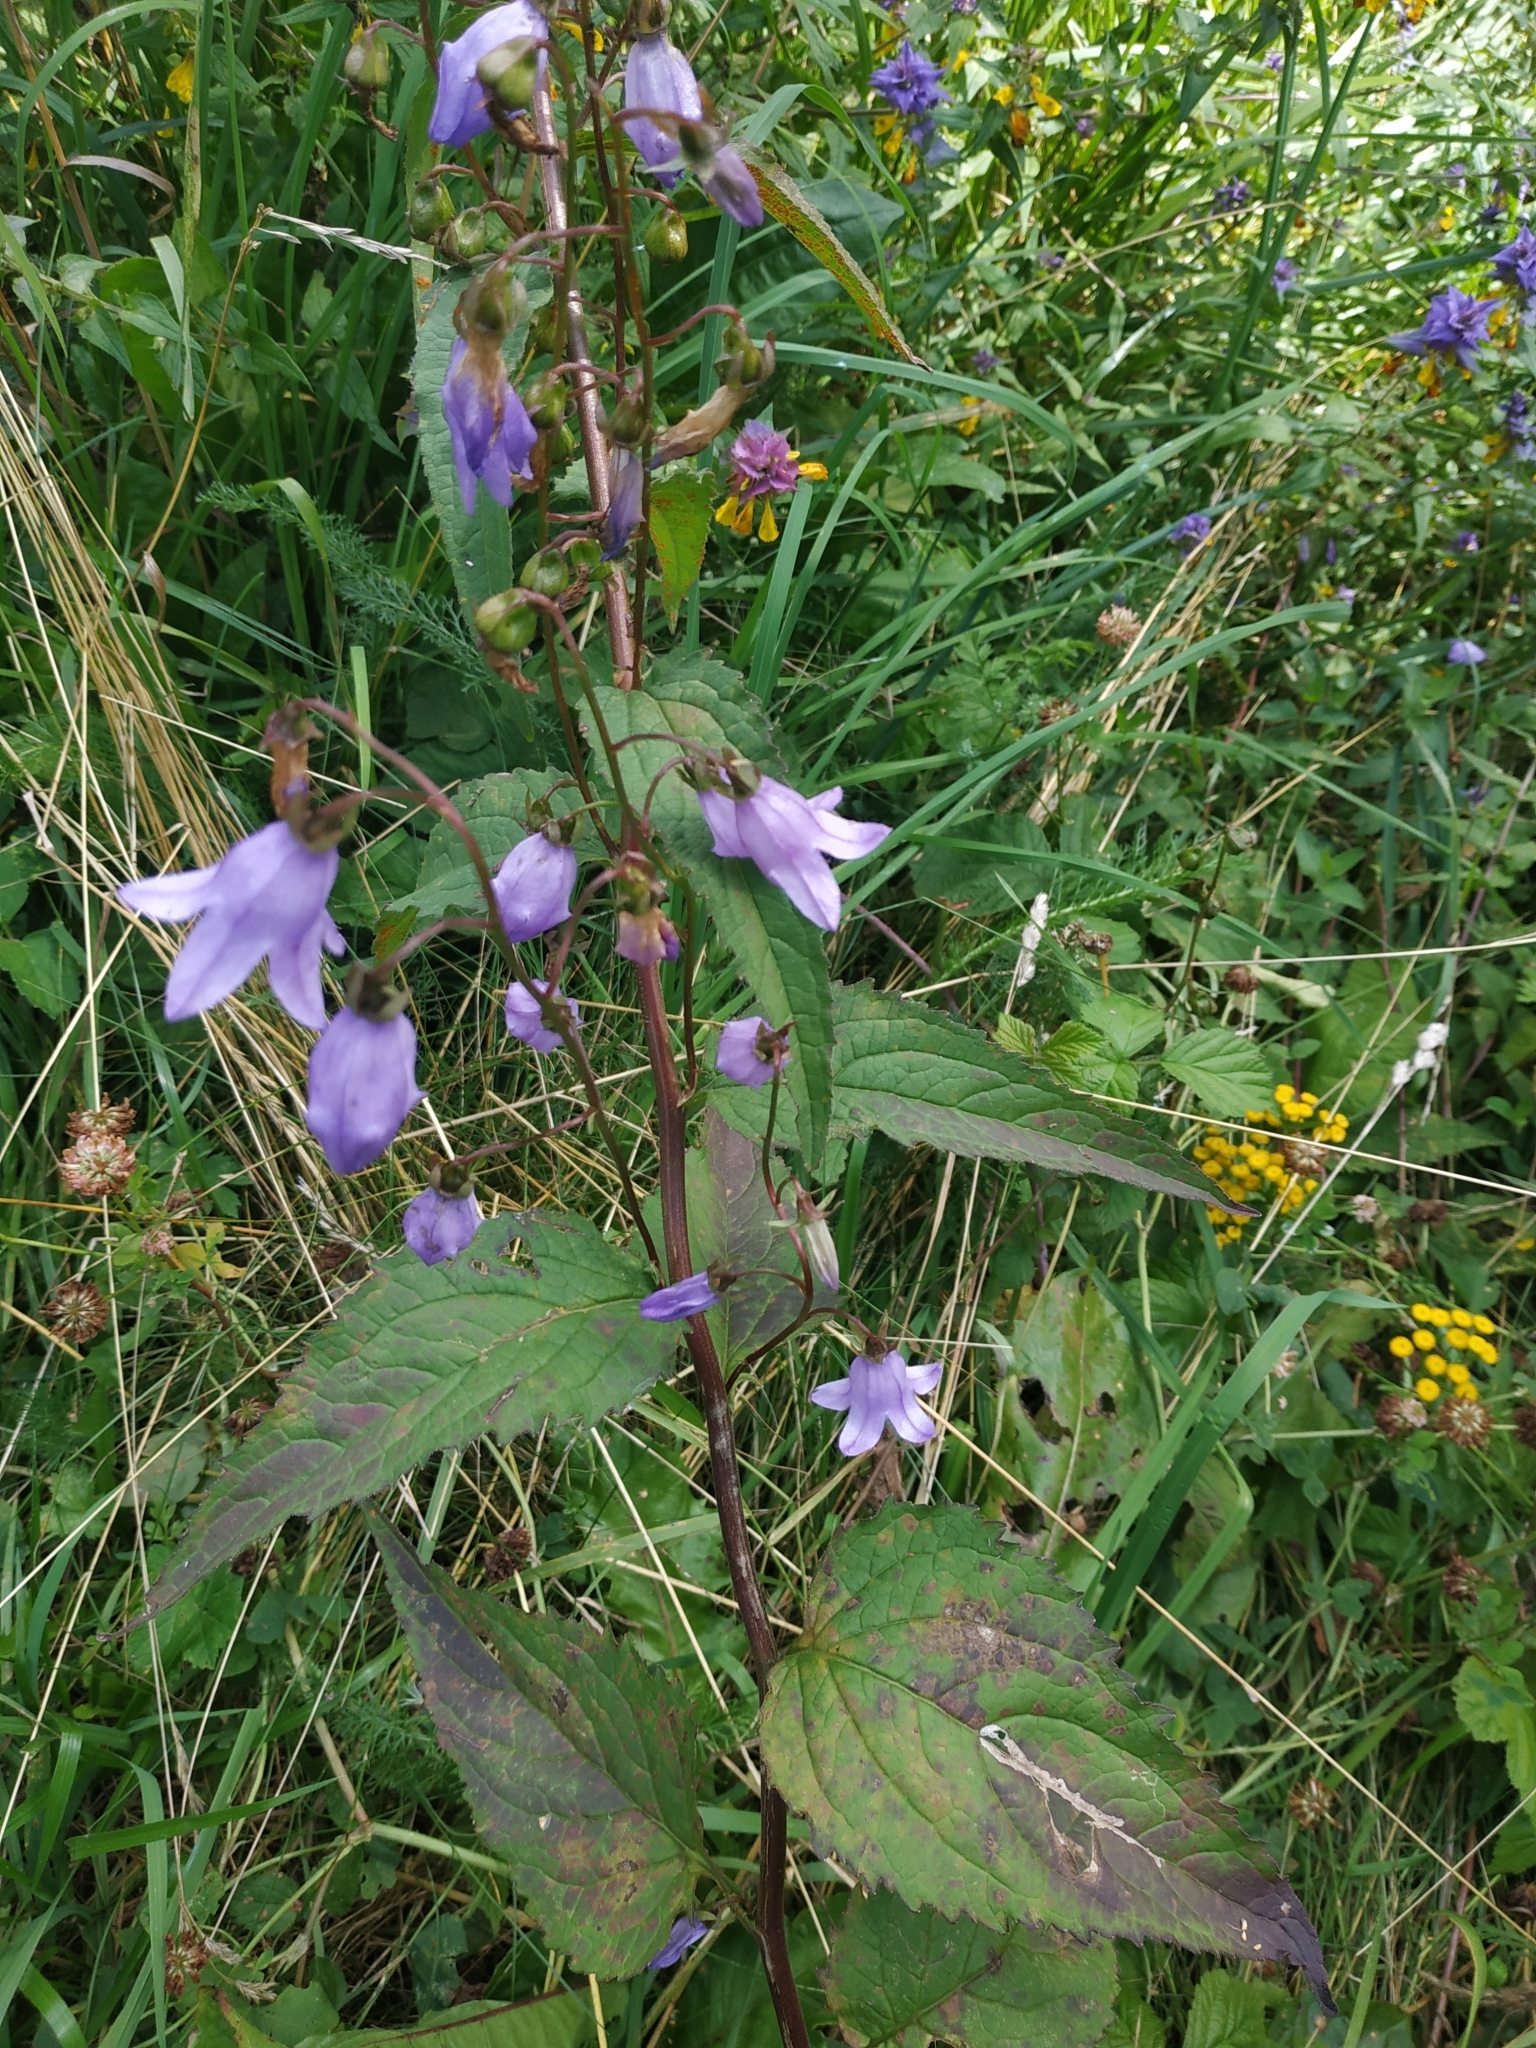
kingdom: Plantae
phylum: Tracheophyta
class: Magnoliopsida
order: Asterales
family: Campanulaceae
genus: Campanula
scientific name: Campanula rapunculoides
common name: Creeping bellflower
